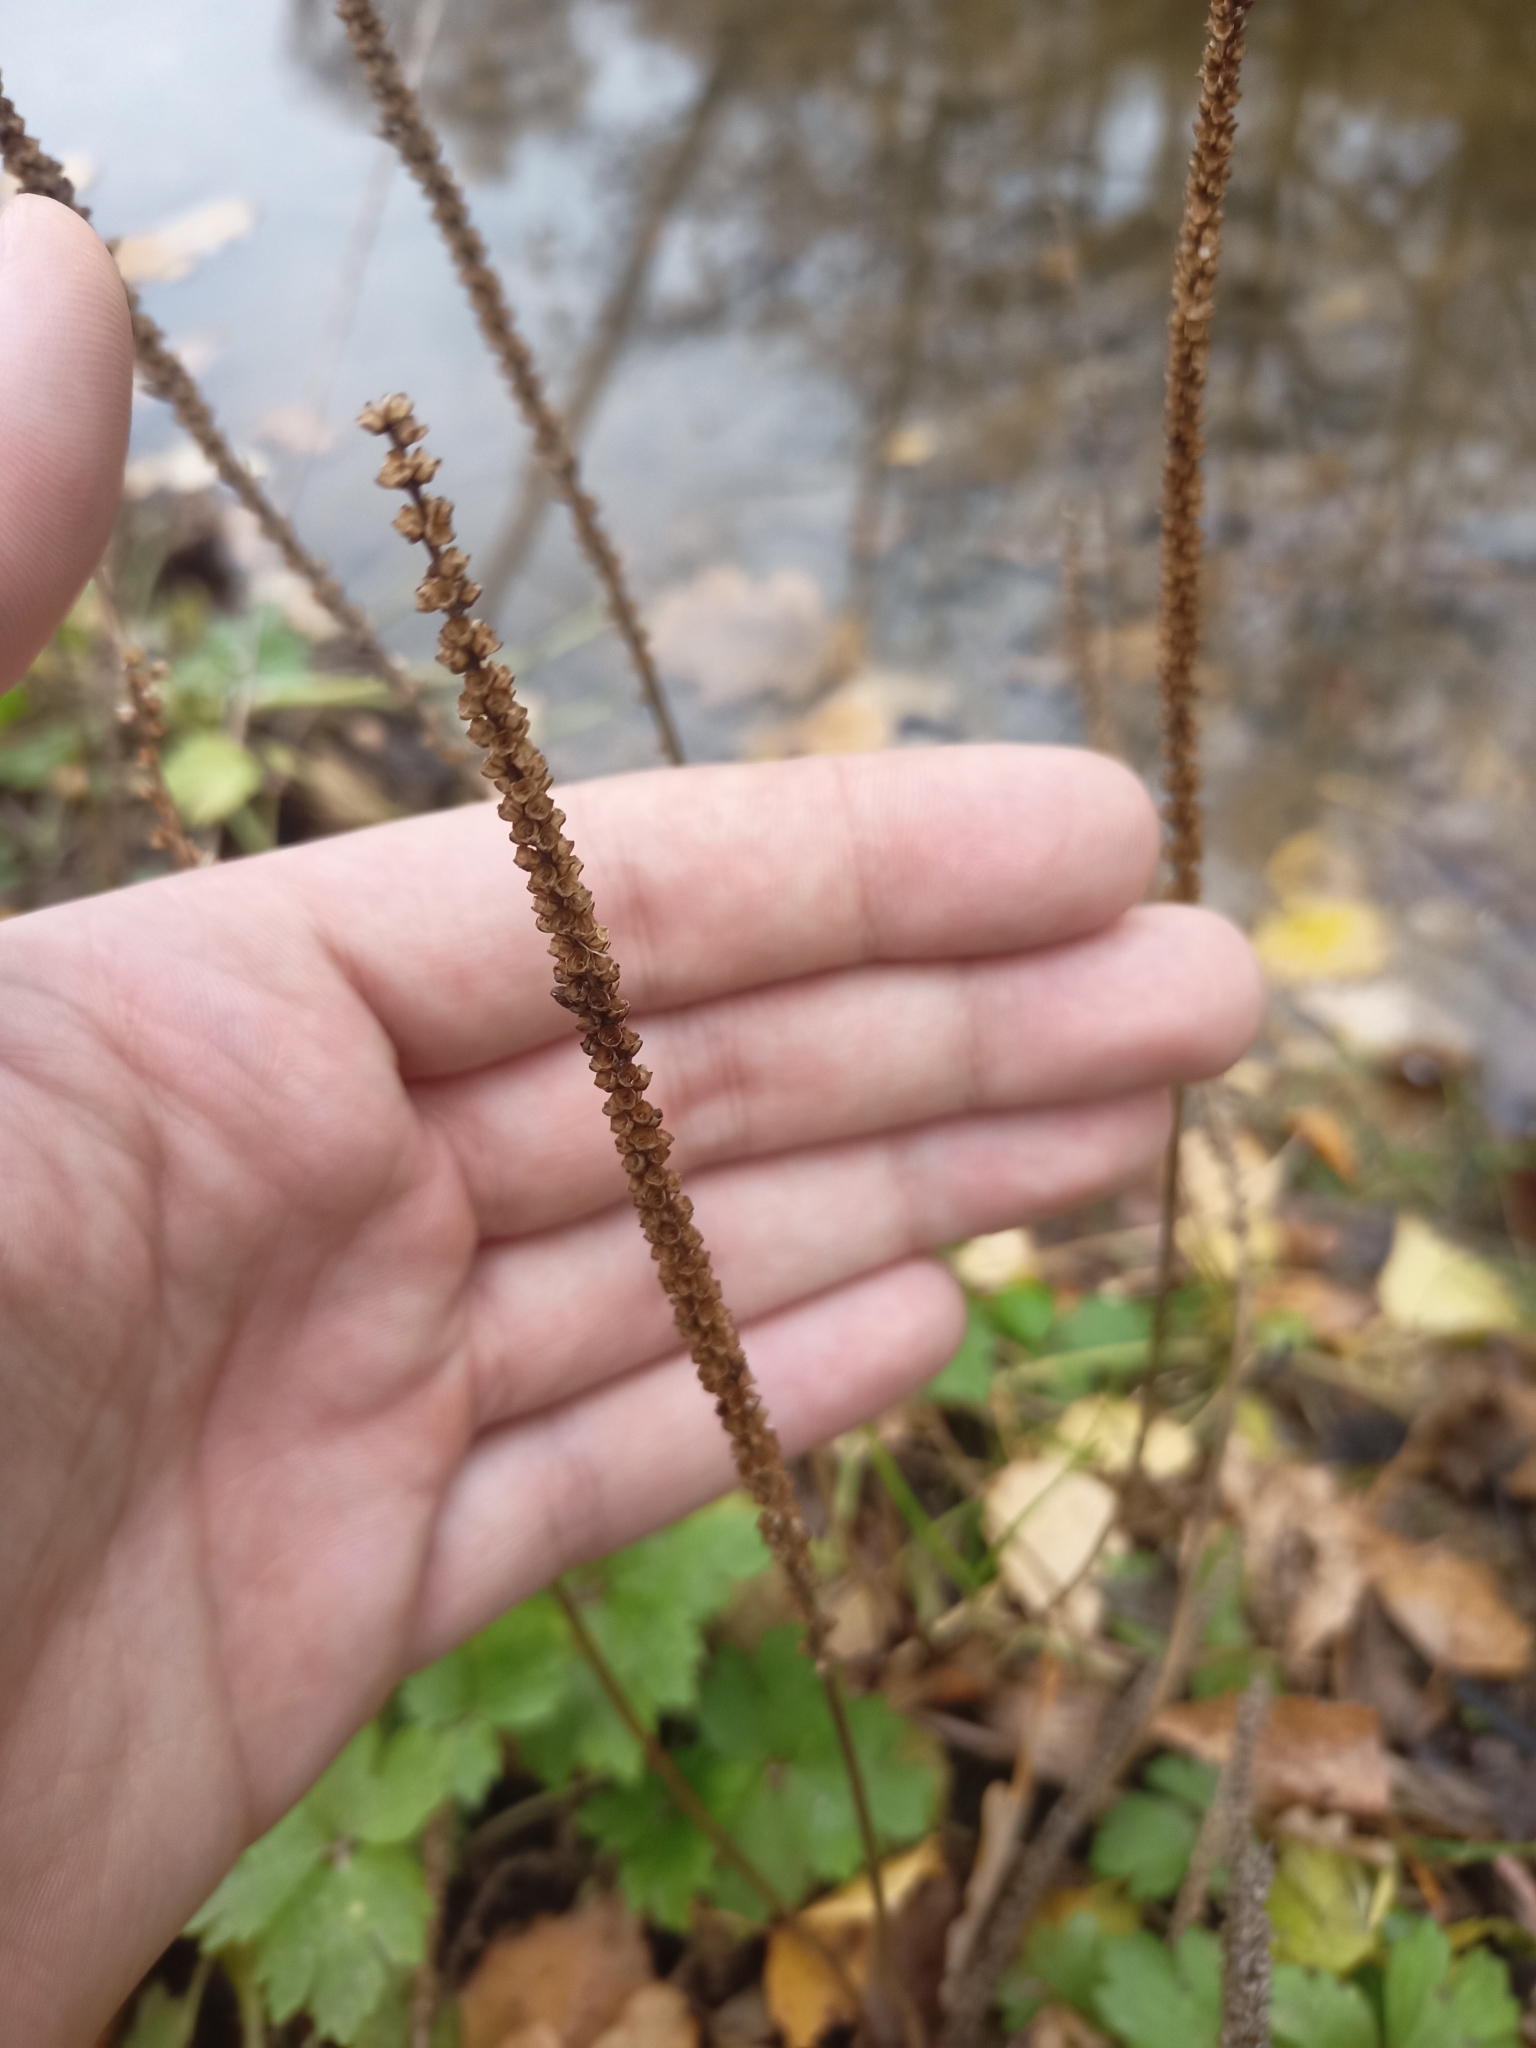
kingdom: Plantae
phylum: Tracheophyta
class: Magnoliopsida
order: Lamiales
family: Plantaginaceae
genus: Plantago
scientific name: Plantago major
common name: Common plantain
